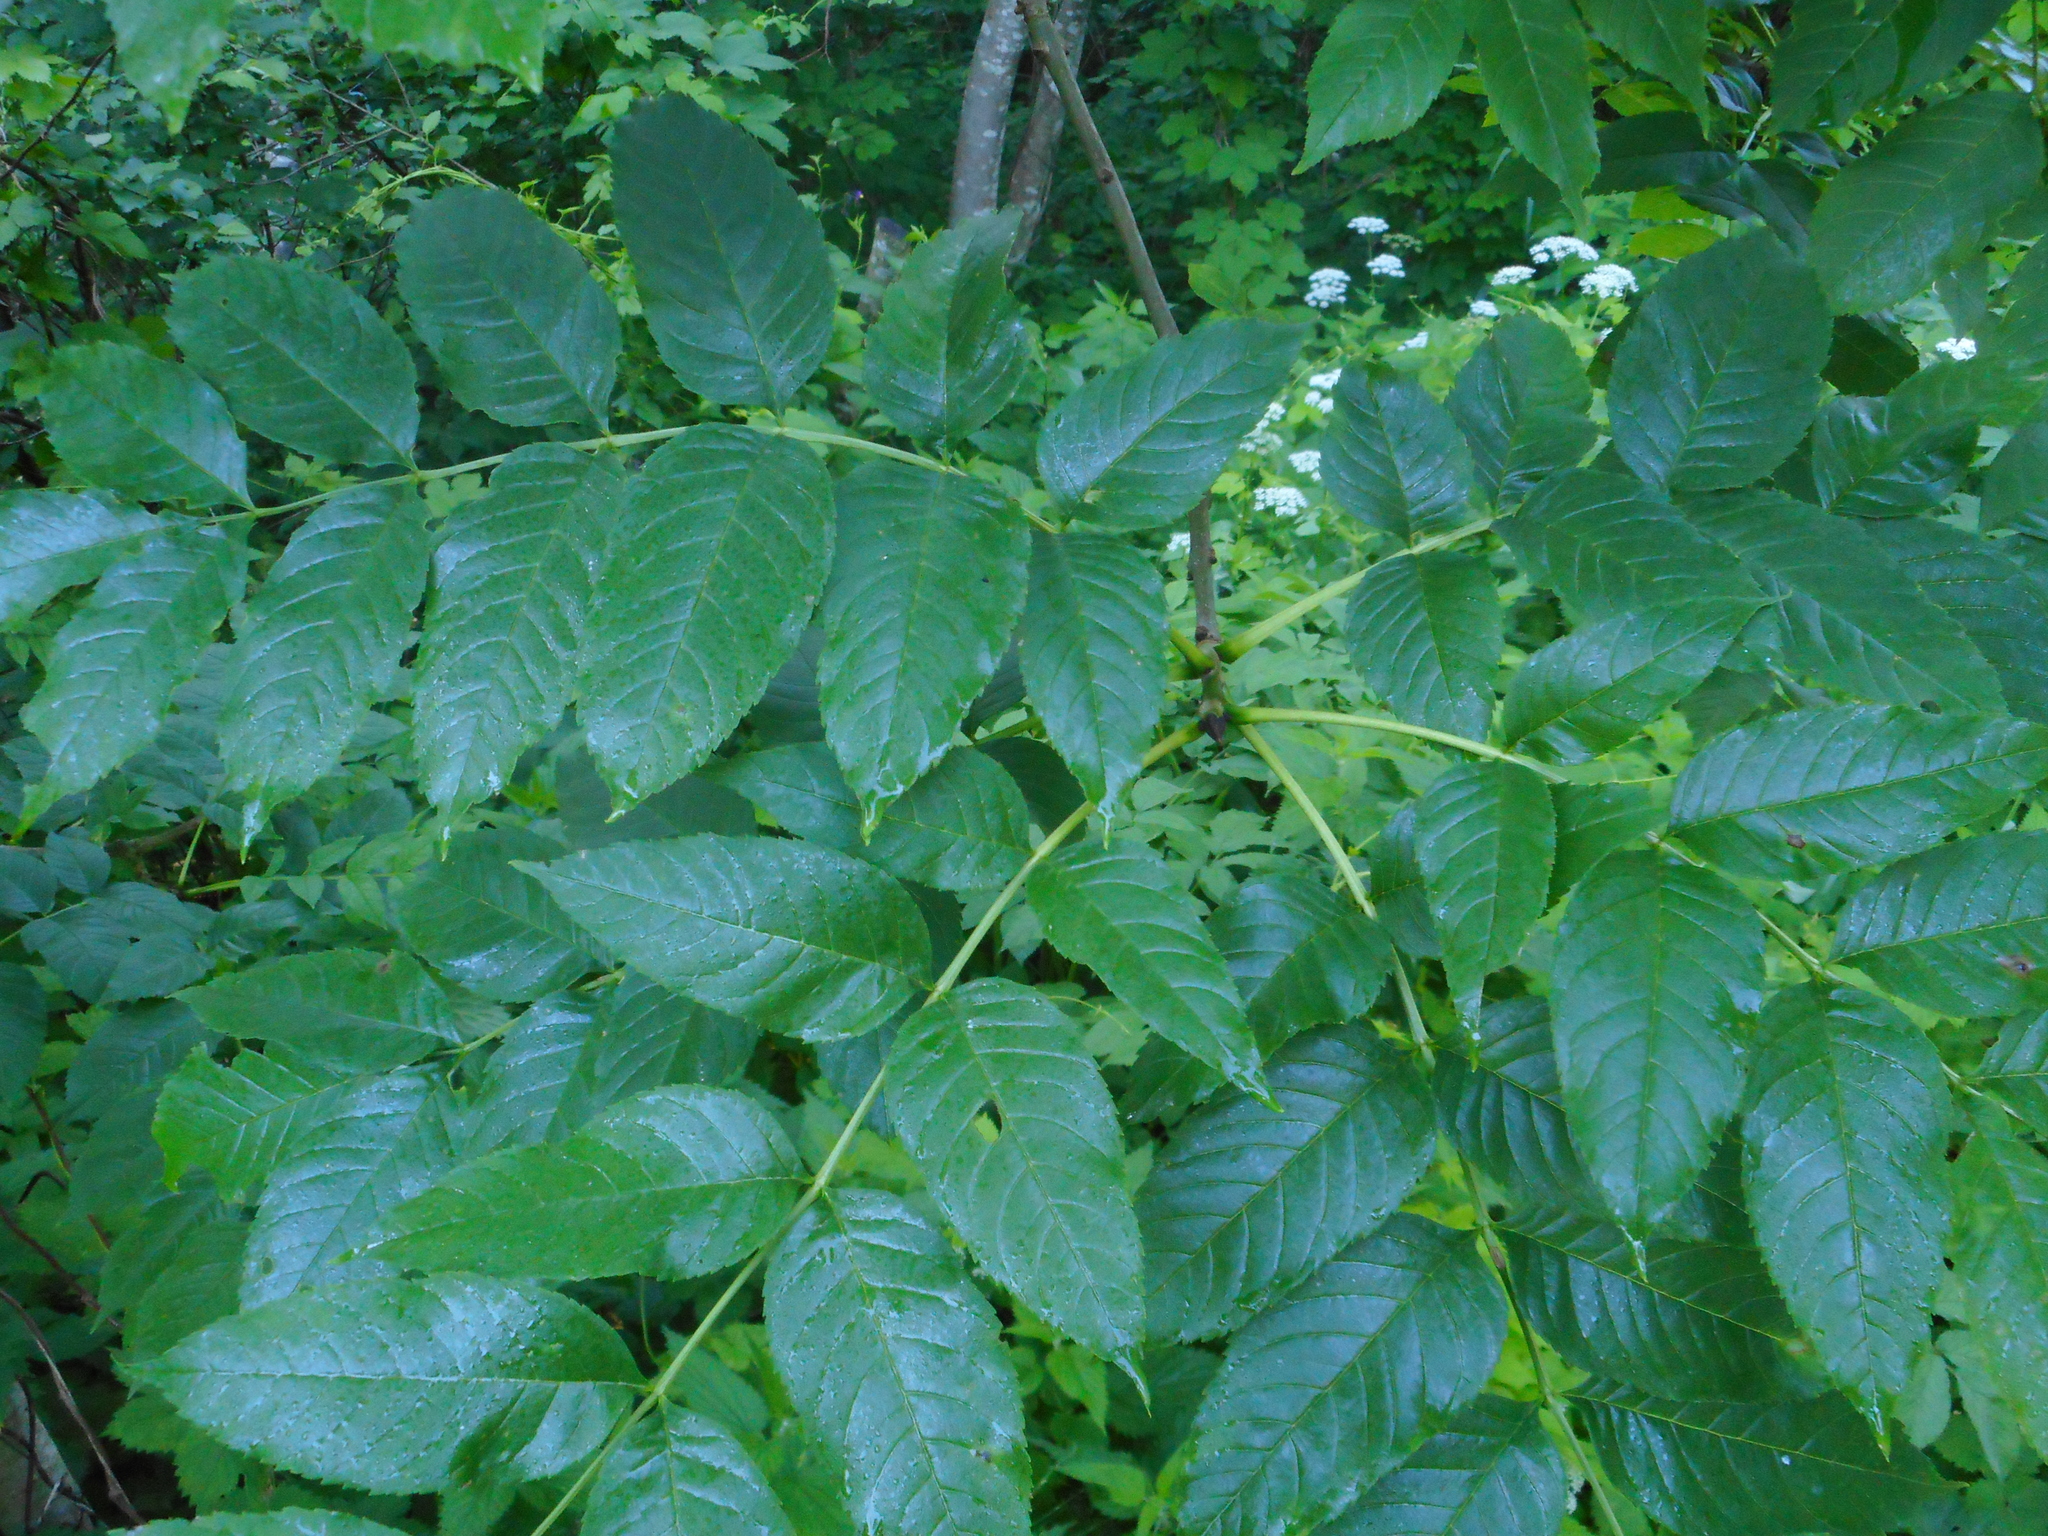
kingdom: Plantae
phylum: Tracheophyta
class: Magnoliopsida
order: Lamiales
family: Oleaceae
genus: Fraxinus
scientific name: Fraxinus excelsior
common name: European ash
